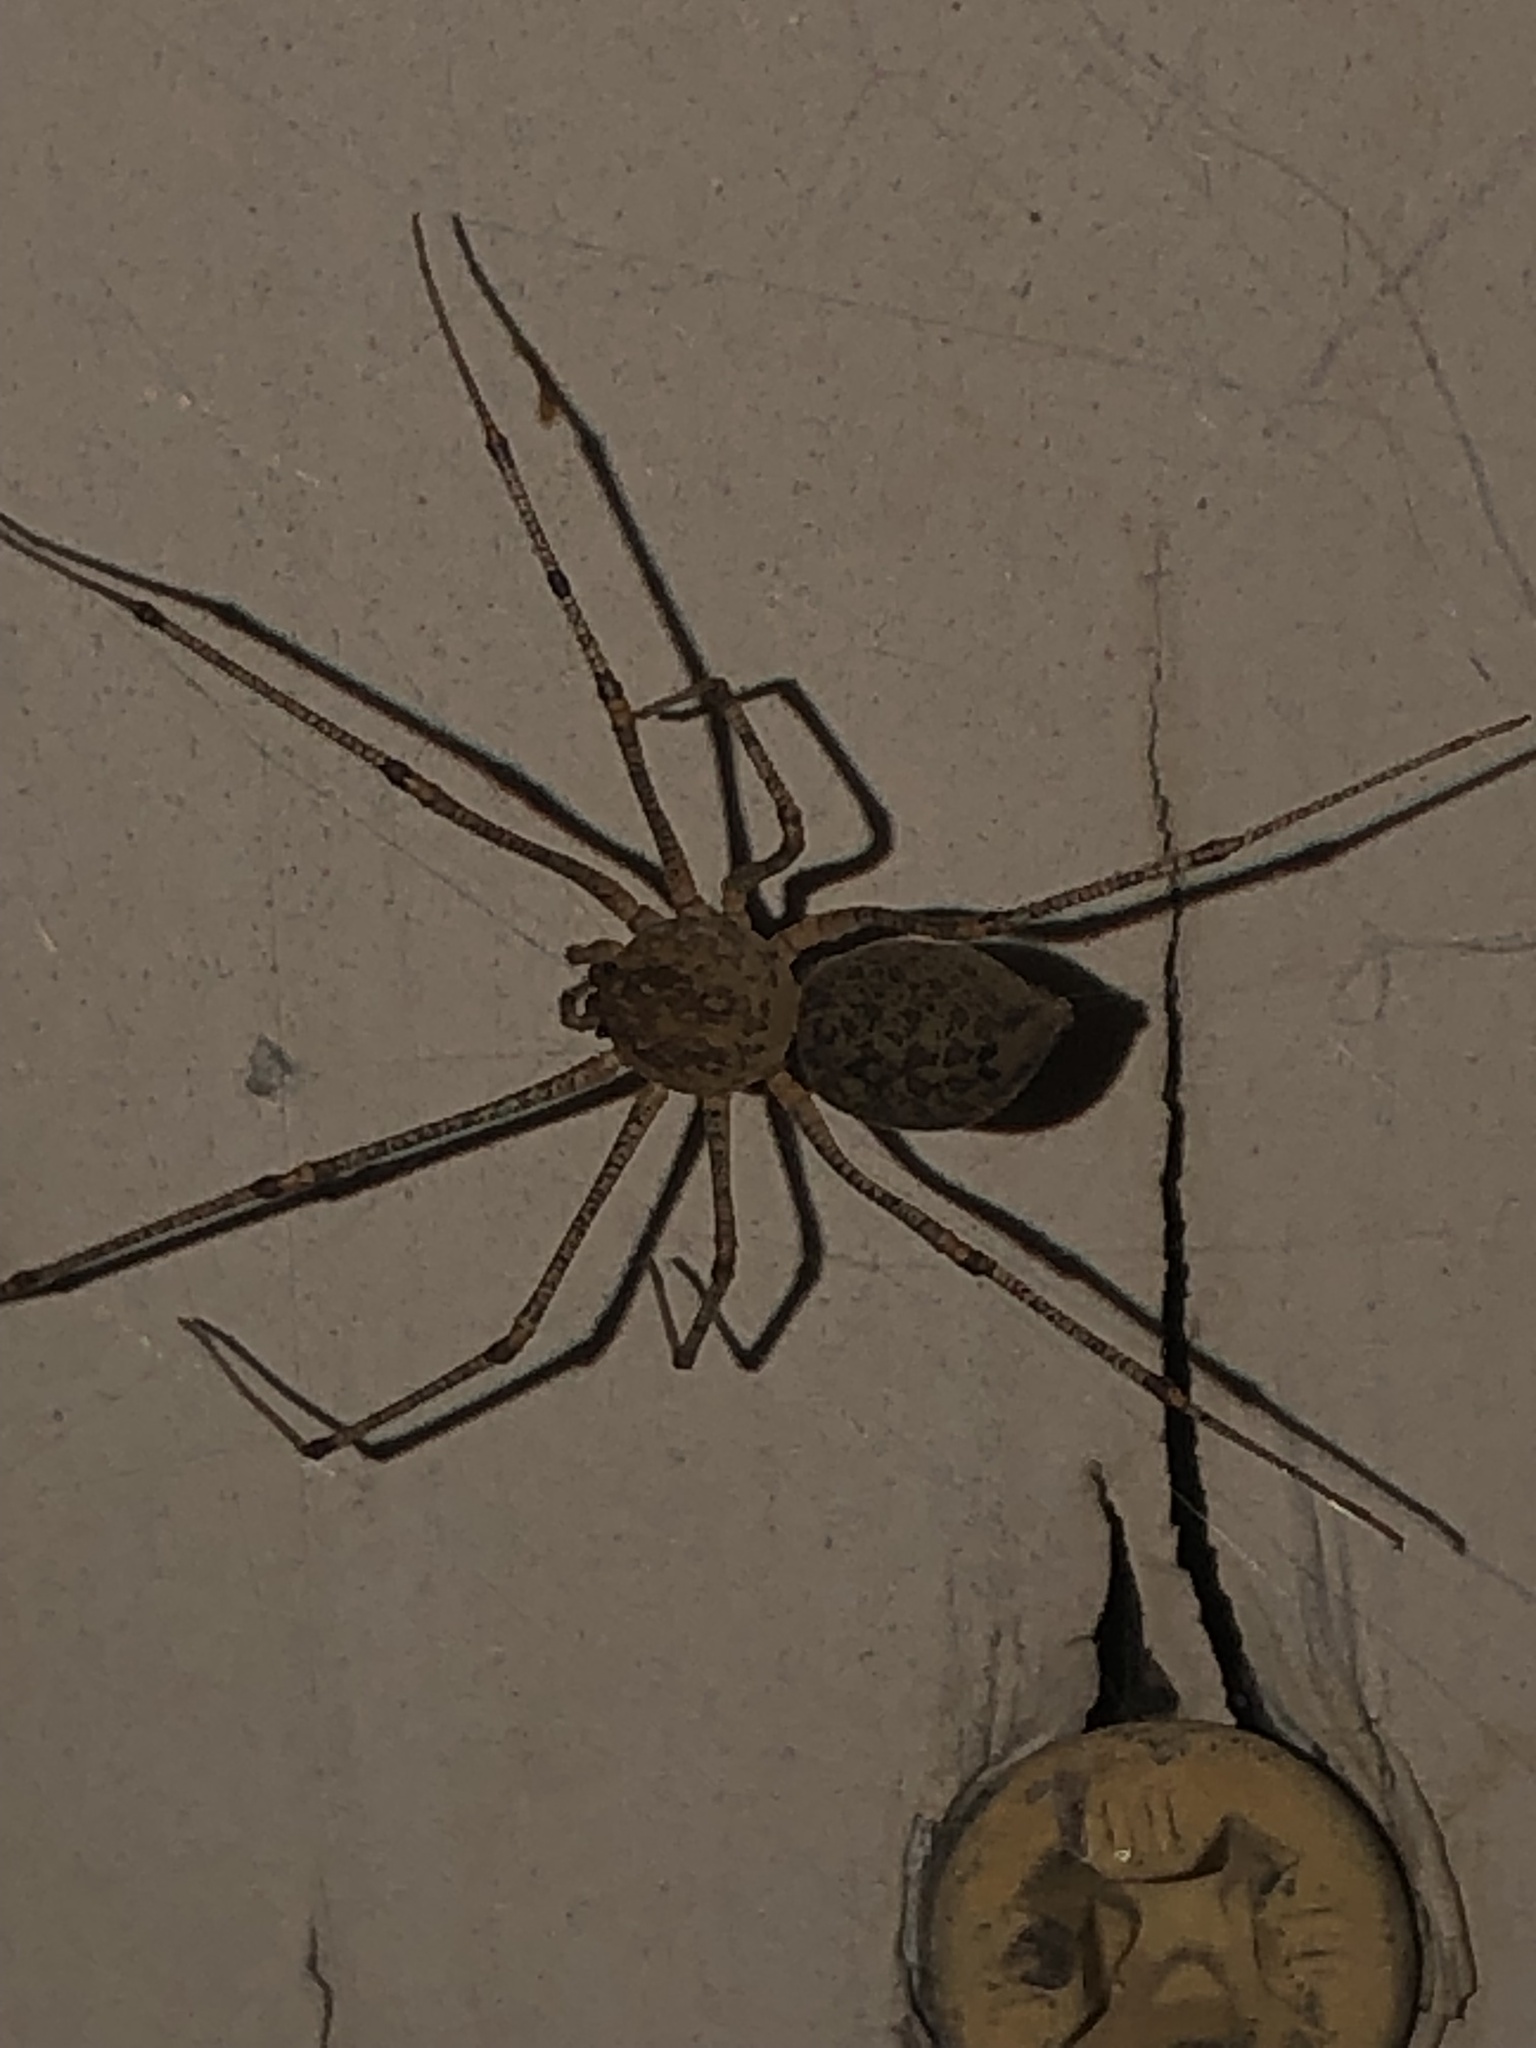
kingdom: Animalia
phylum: Arthropoda
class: Arachnida
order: Araneae
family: Scytodidae
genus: Scytodes
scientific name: Scytodes atlacoya
